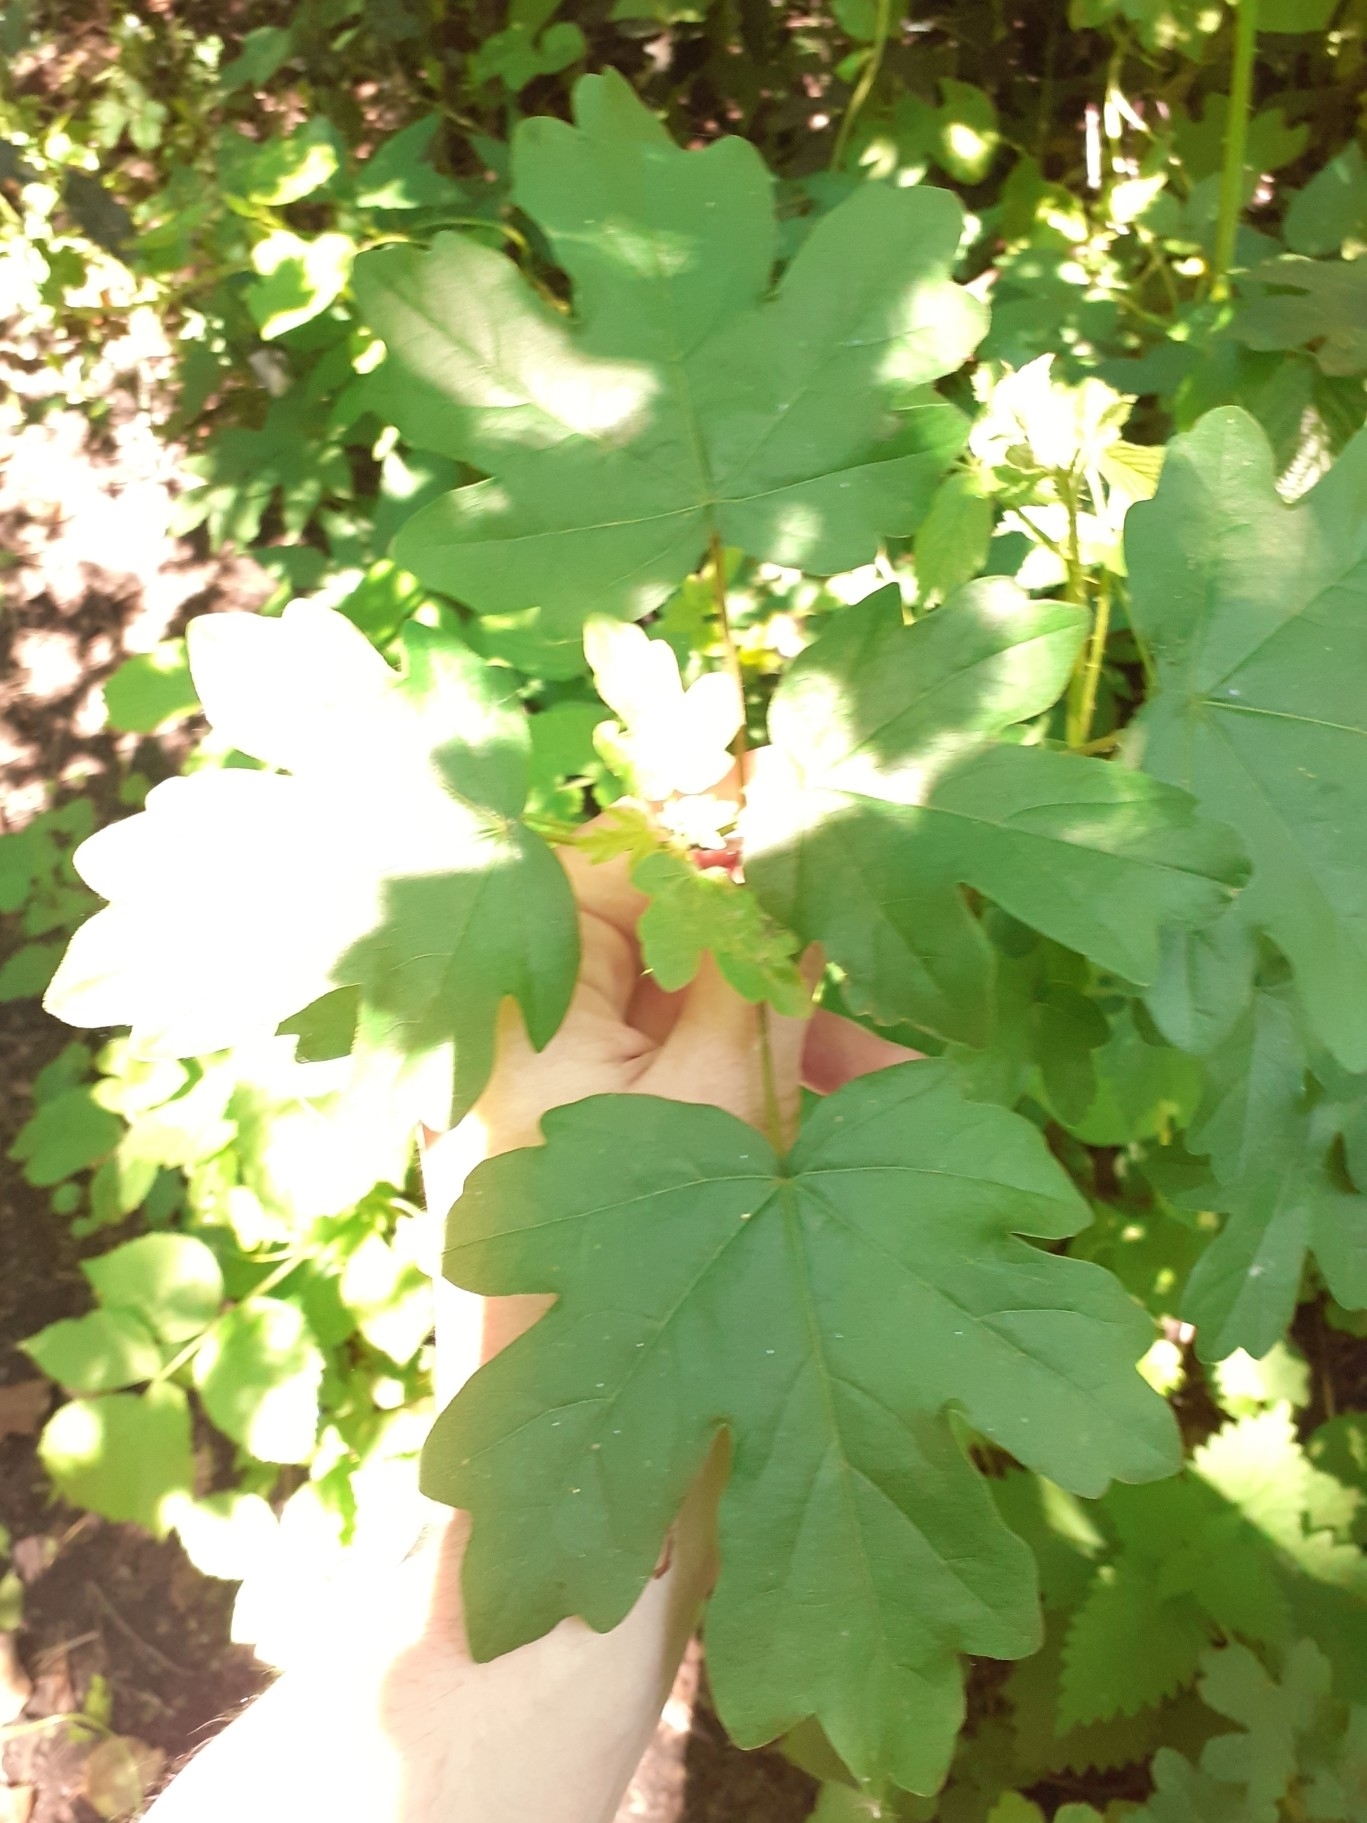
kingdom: Plantae
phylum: Tracheophyta
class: Magnoliopsida
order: Sapindales
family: Sapindaceae
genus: Acer
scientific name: Acer campestre
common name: Field maple
